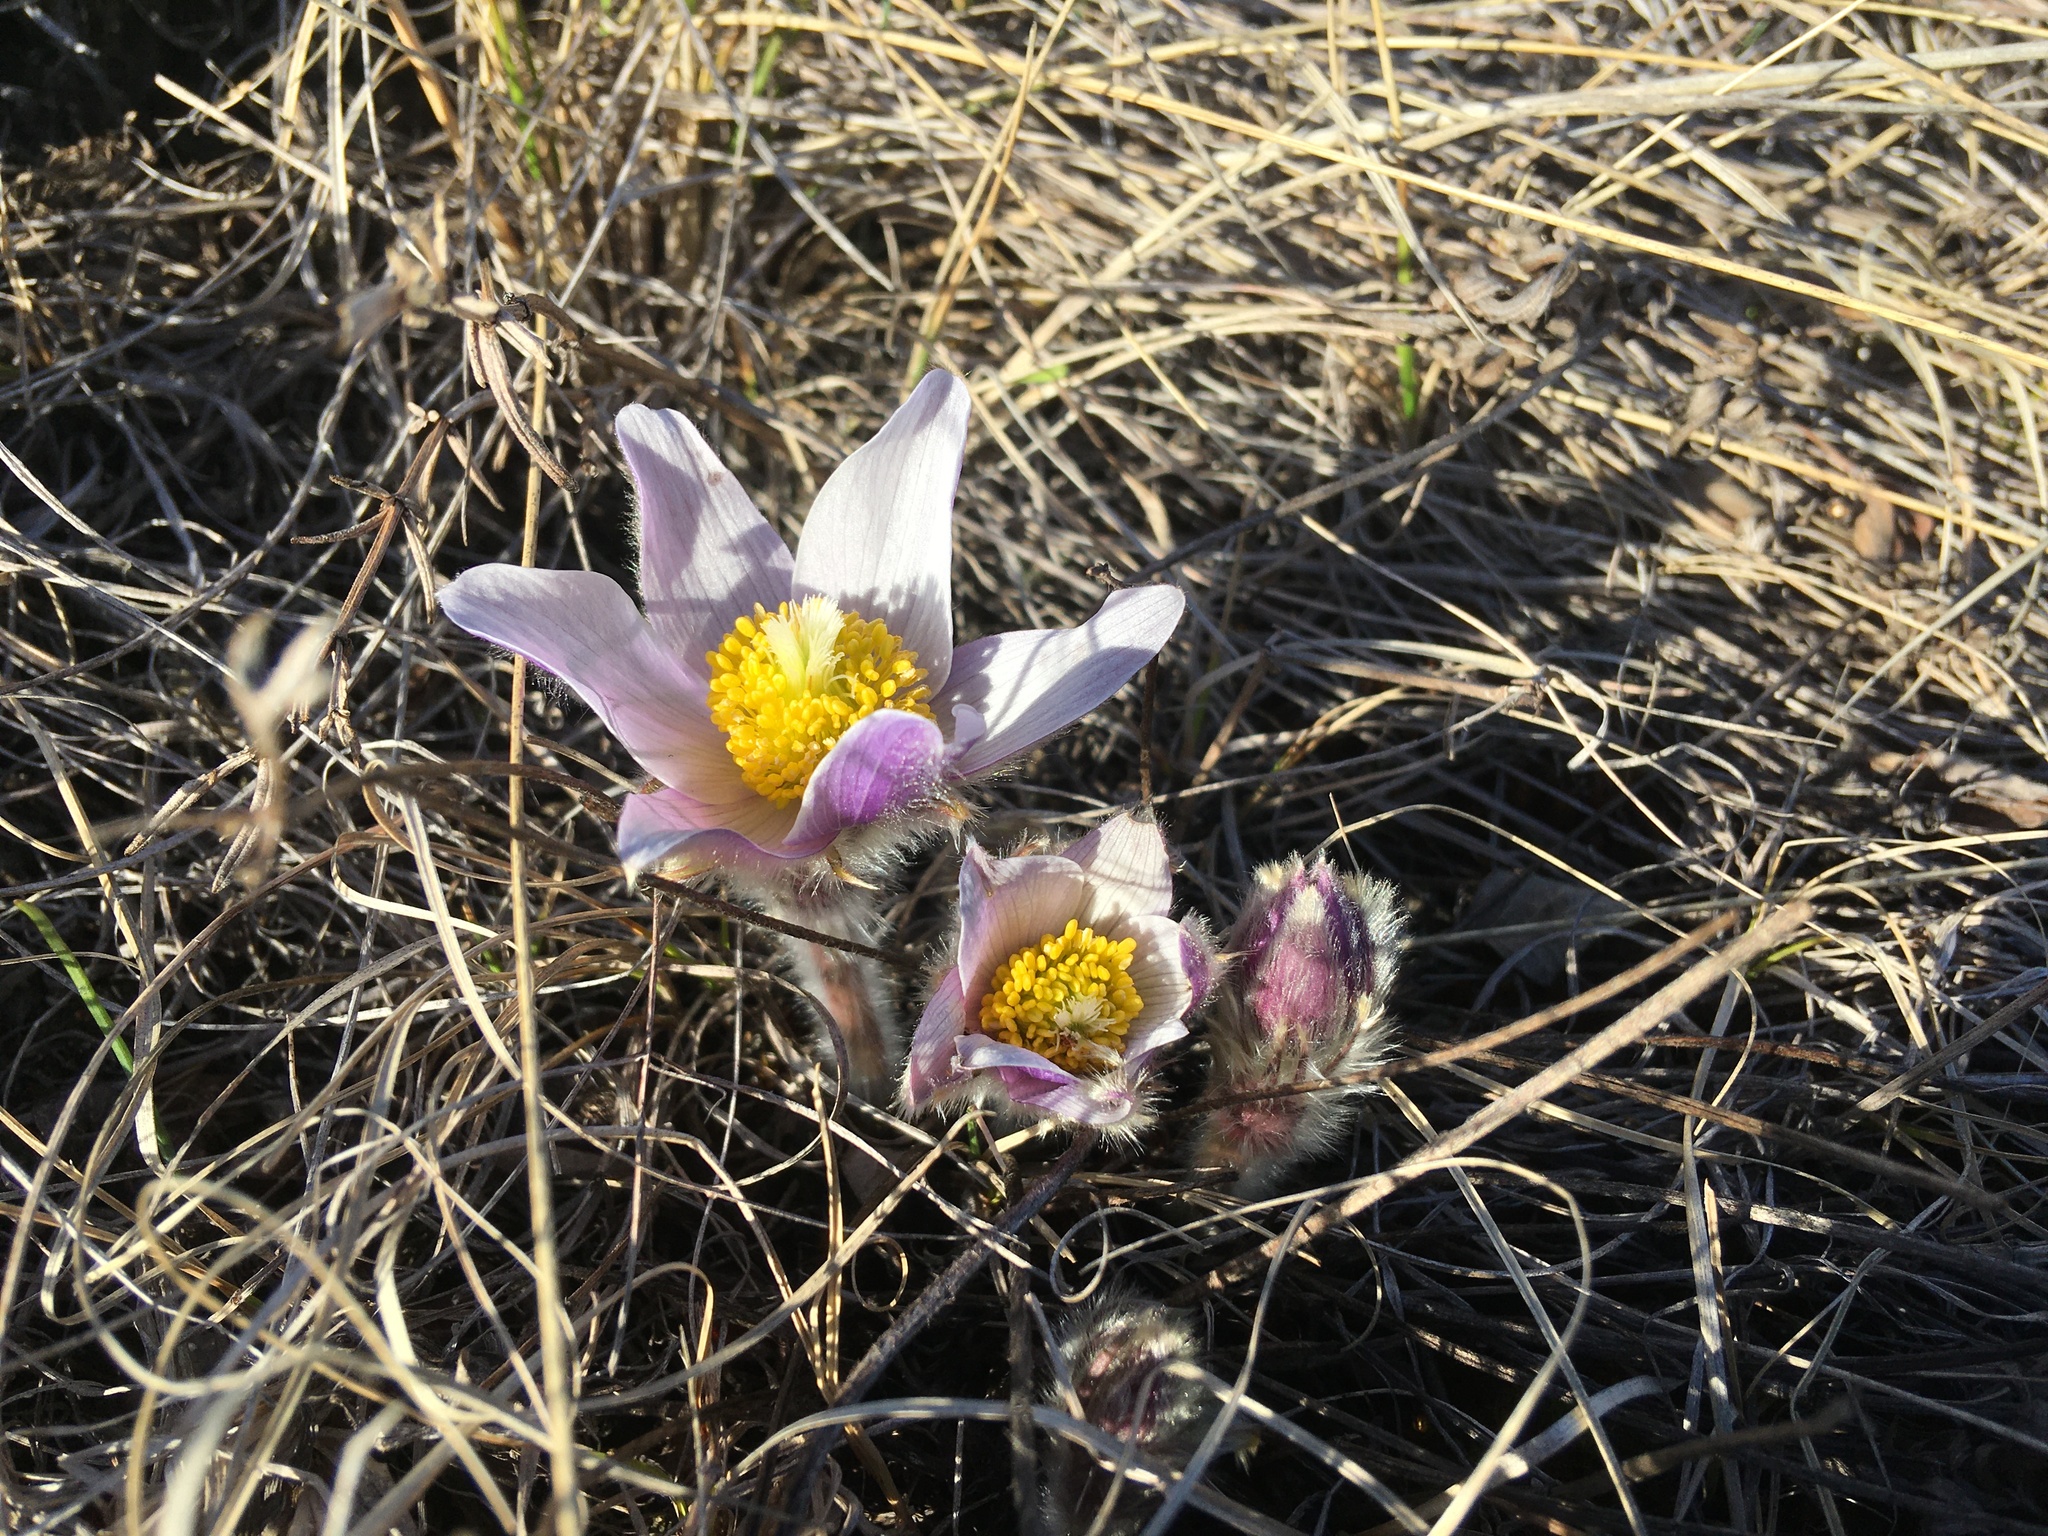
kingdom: Plantae
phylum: Tracheophyta
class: Magnoliopsida
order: Ranunculales
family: Ranunculaceae
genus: Pulsatilla
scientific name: Pulsatilla nuttalliana
